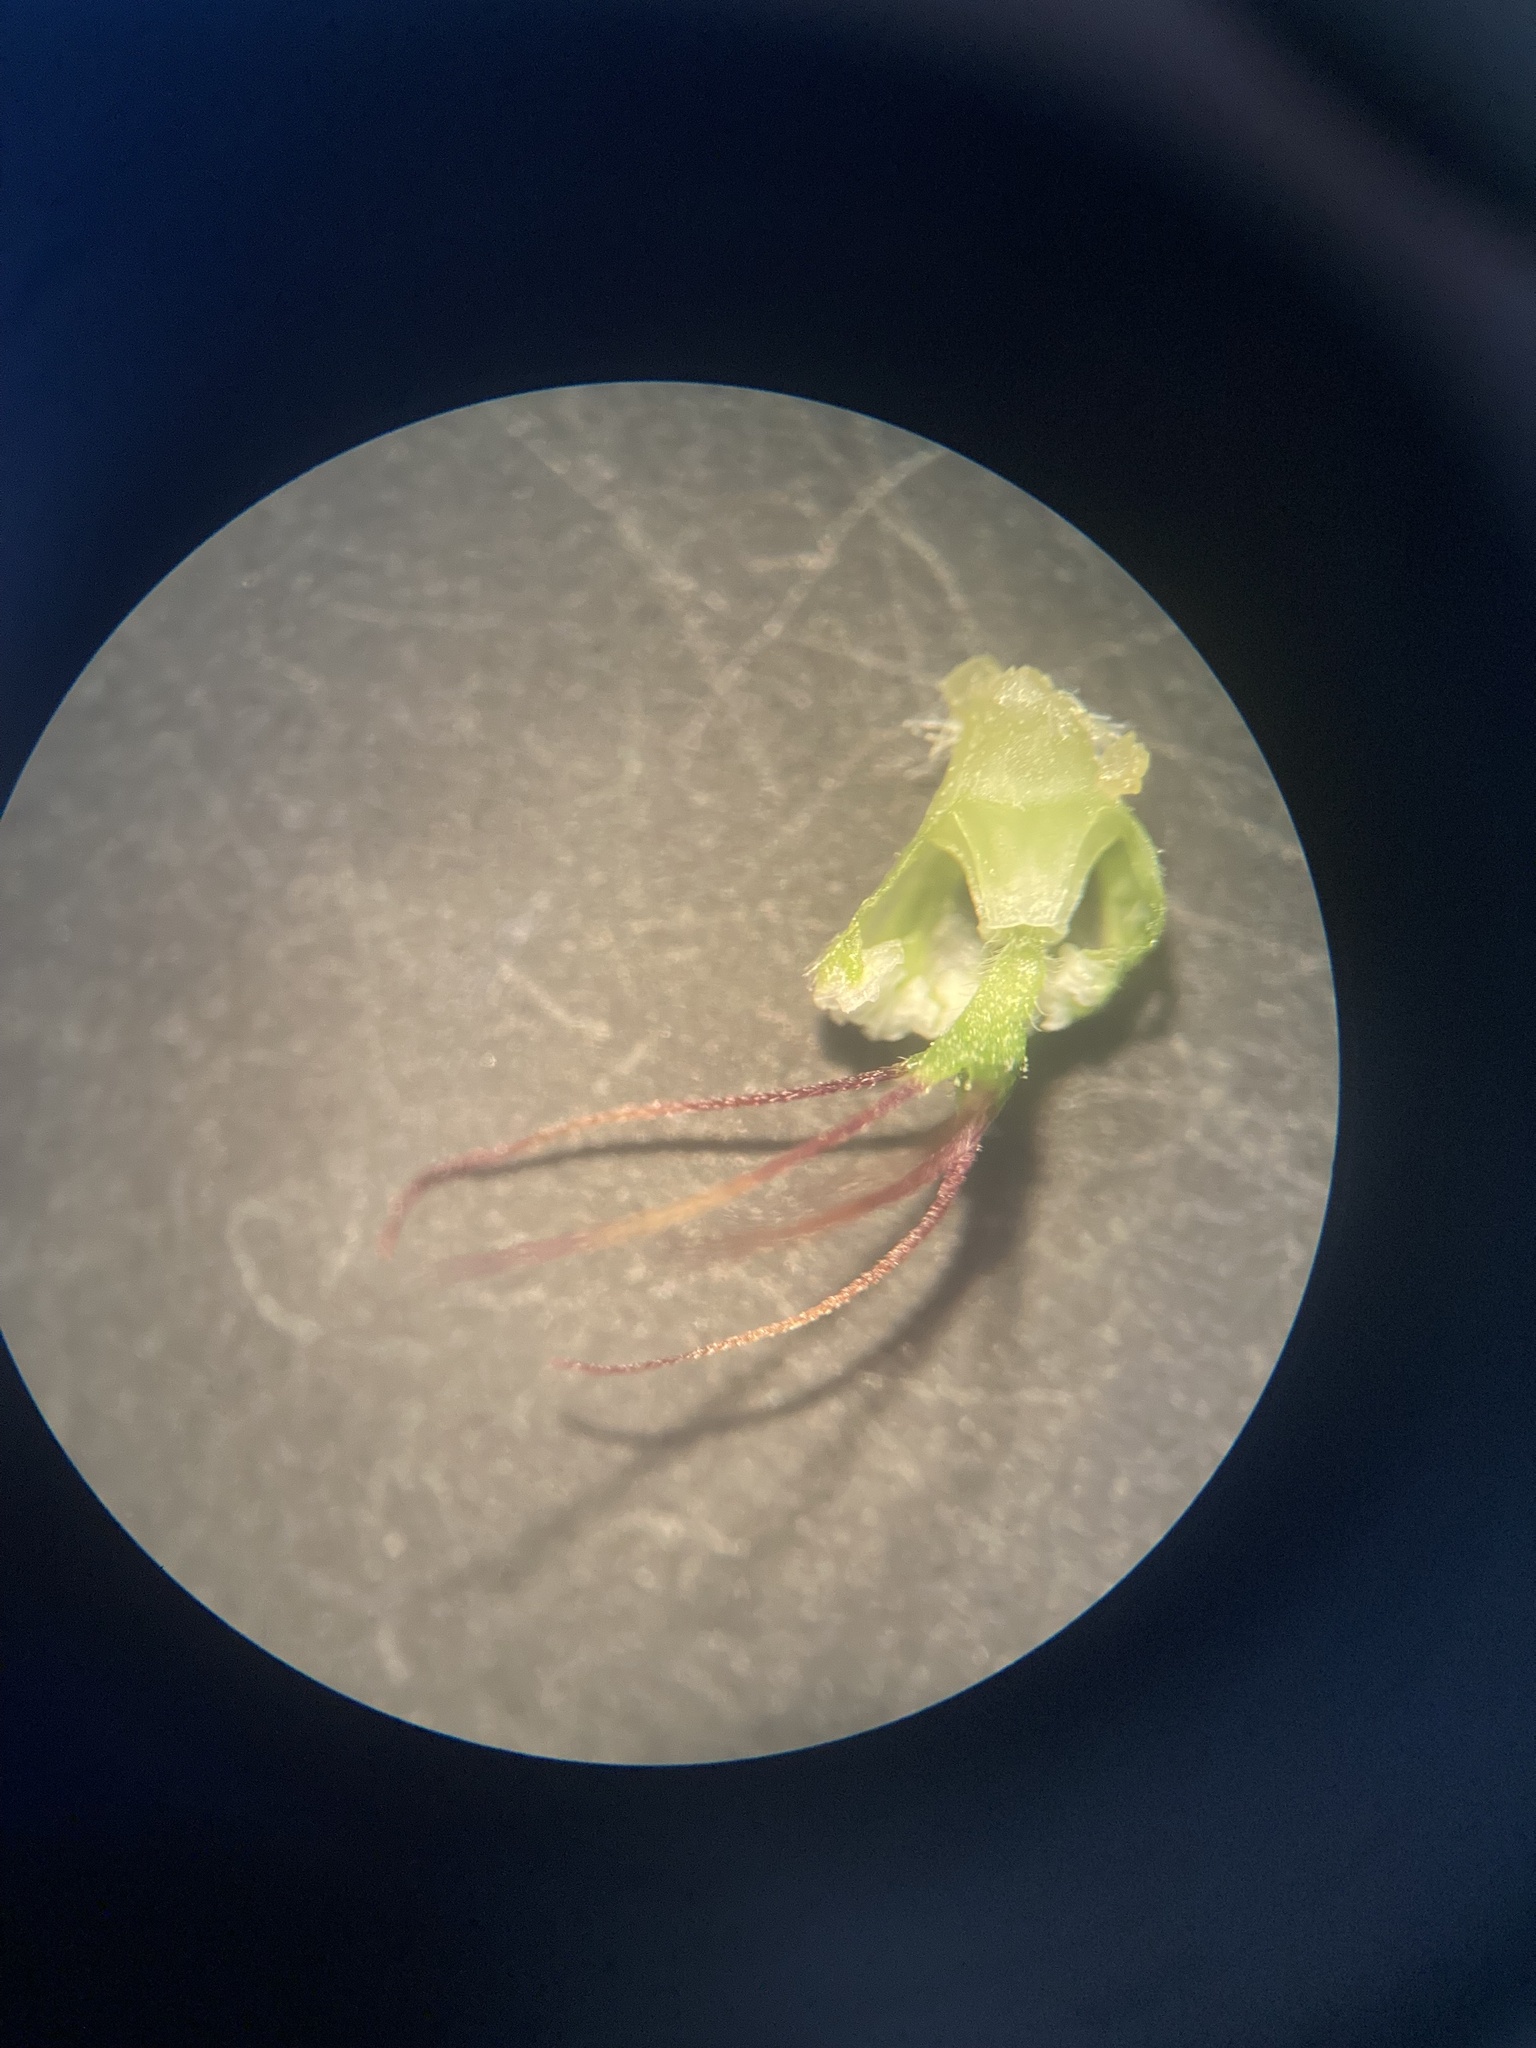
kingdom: Plantae
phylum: Tracheophyta
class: Magnoliopsida
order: Dipsacales
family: Caprifoliaceae
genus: Sixalix
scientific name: Sixalix atropurpurea
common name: Sweet scabious
